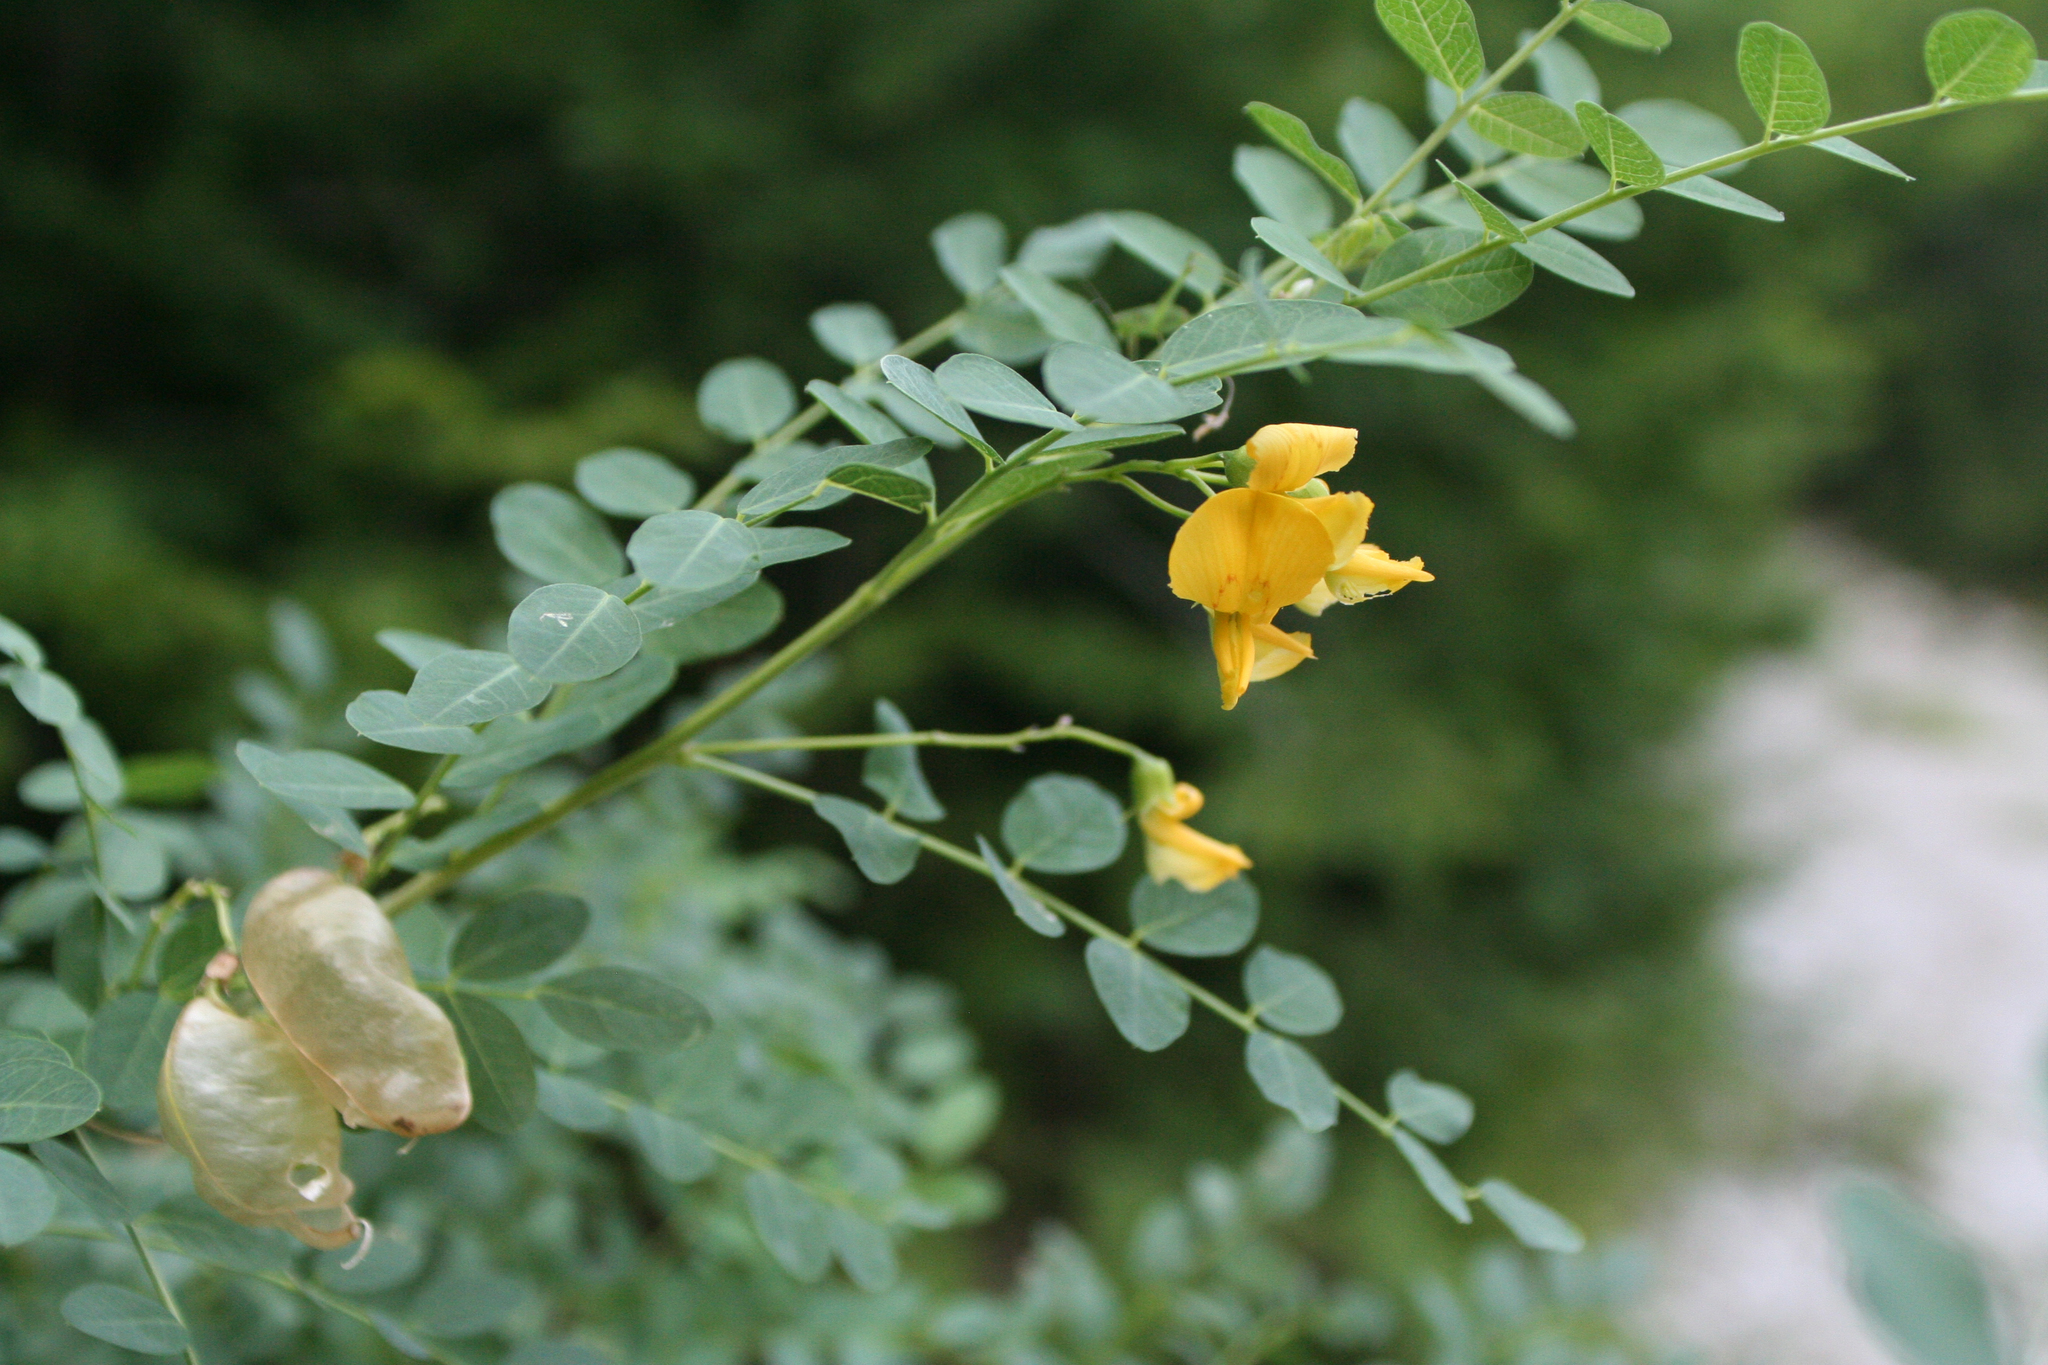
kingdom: Plantae
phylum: Tracheophyta
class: Magnoliopsida
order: Fabales
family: Fabaceae
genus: Colutea
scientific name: Colutea cilicica
